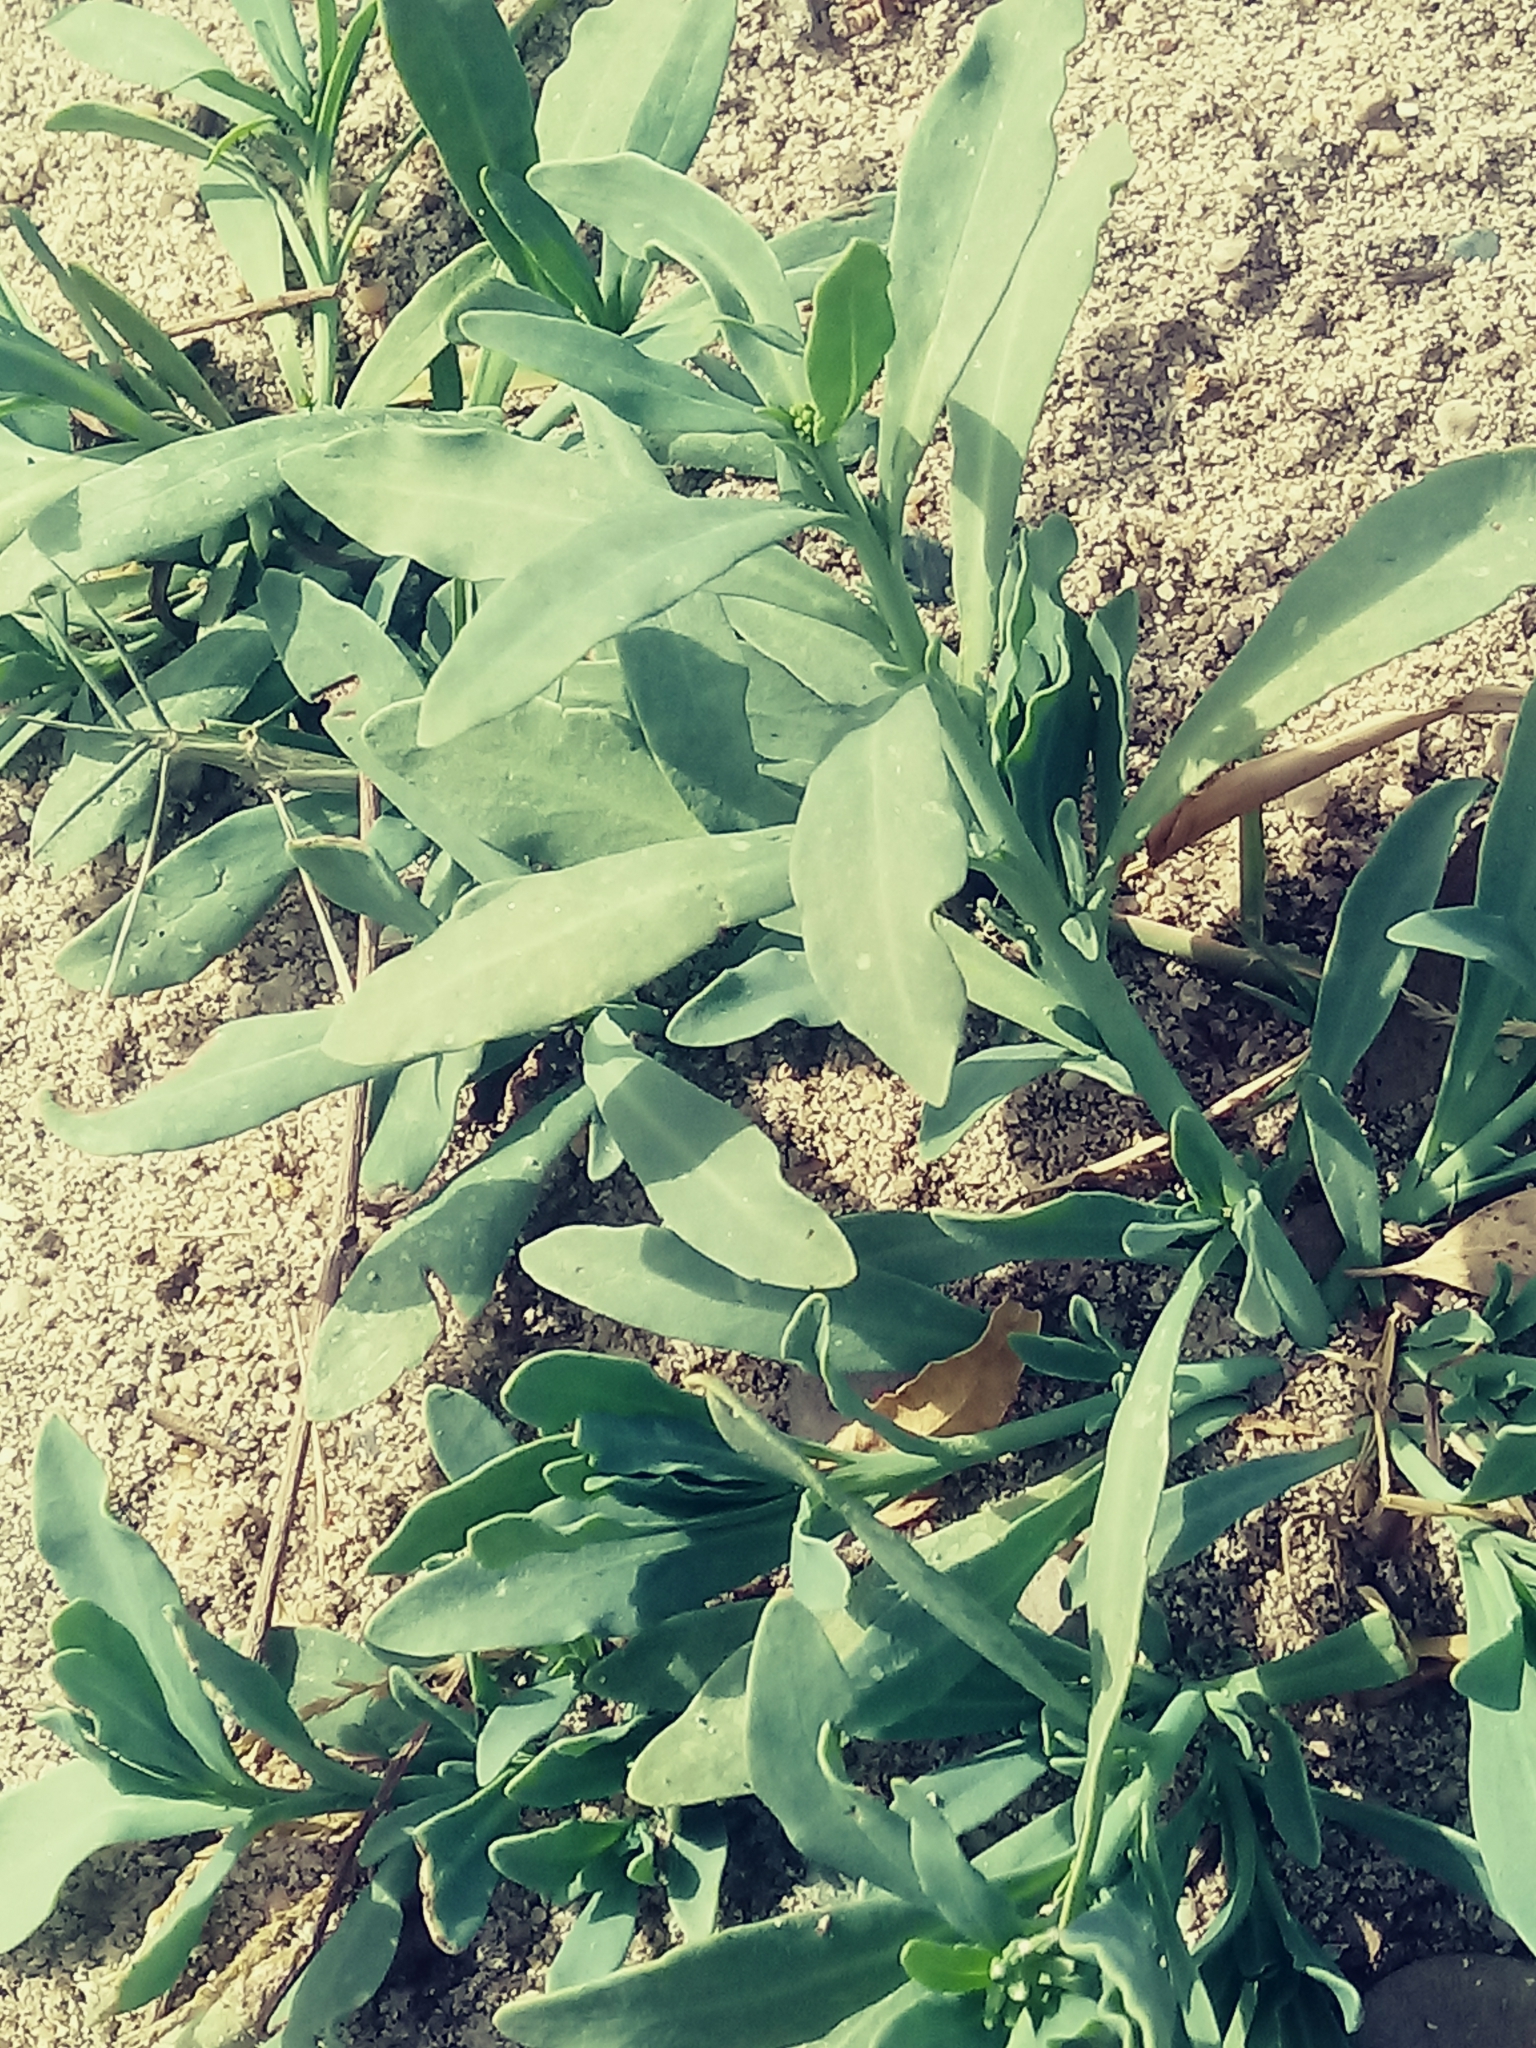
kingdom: Plantae
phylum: Tracheophyta
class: Magnoliopsida
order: Boraginales
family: Heliotropiaceae
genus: Heliotropium
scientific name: Heliotropium curassavicum
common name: Seaside heliotrope
